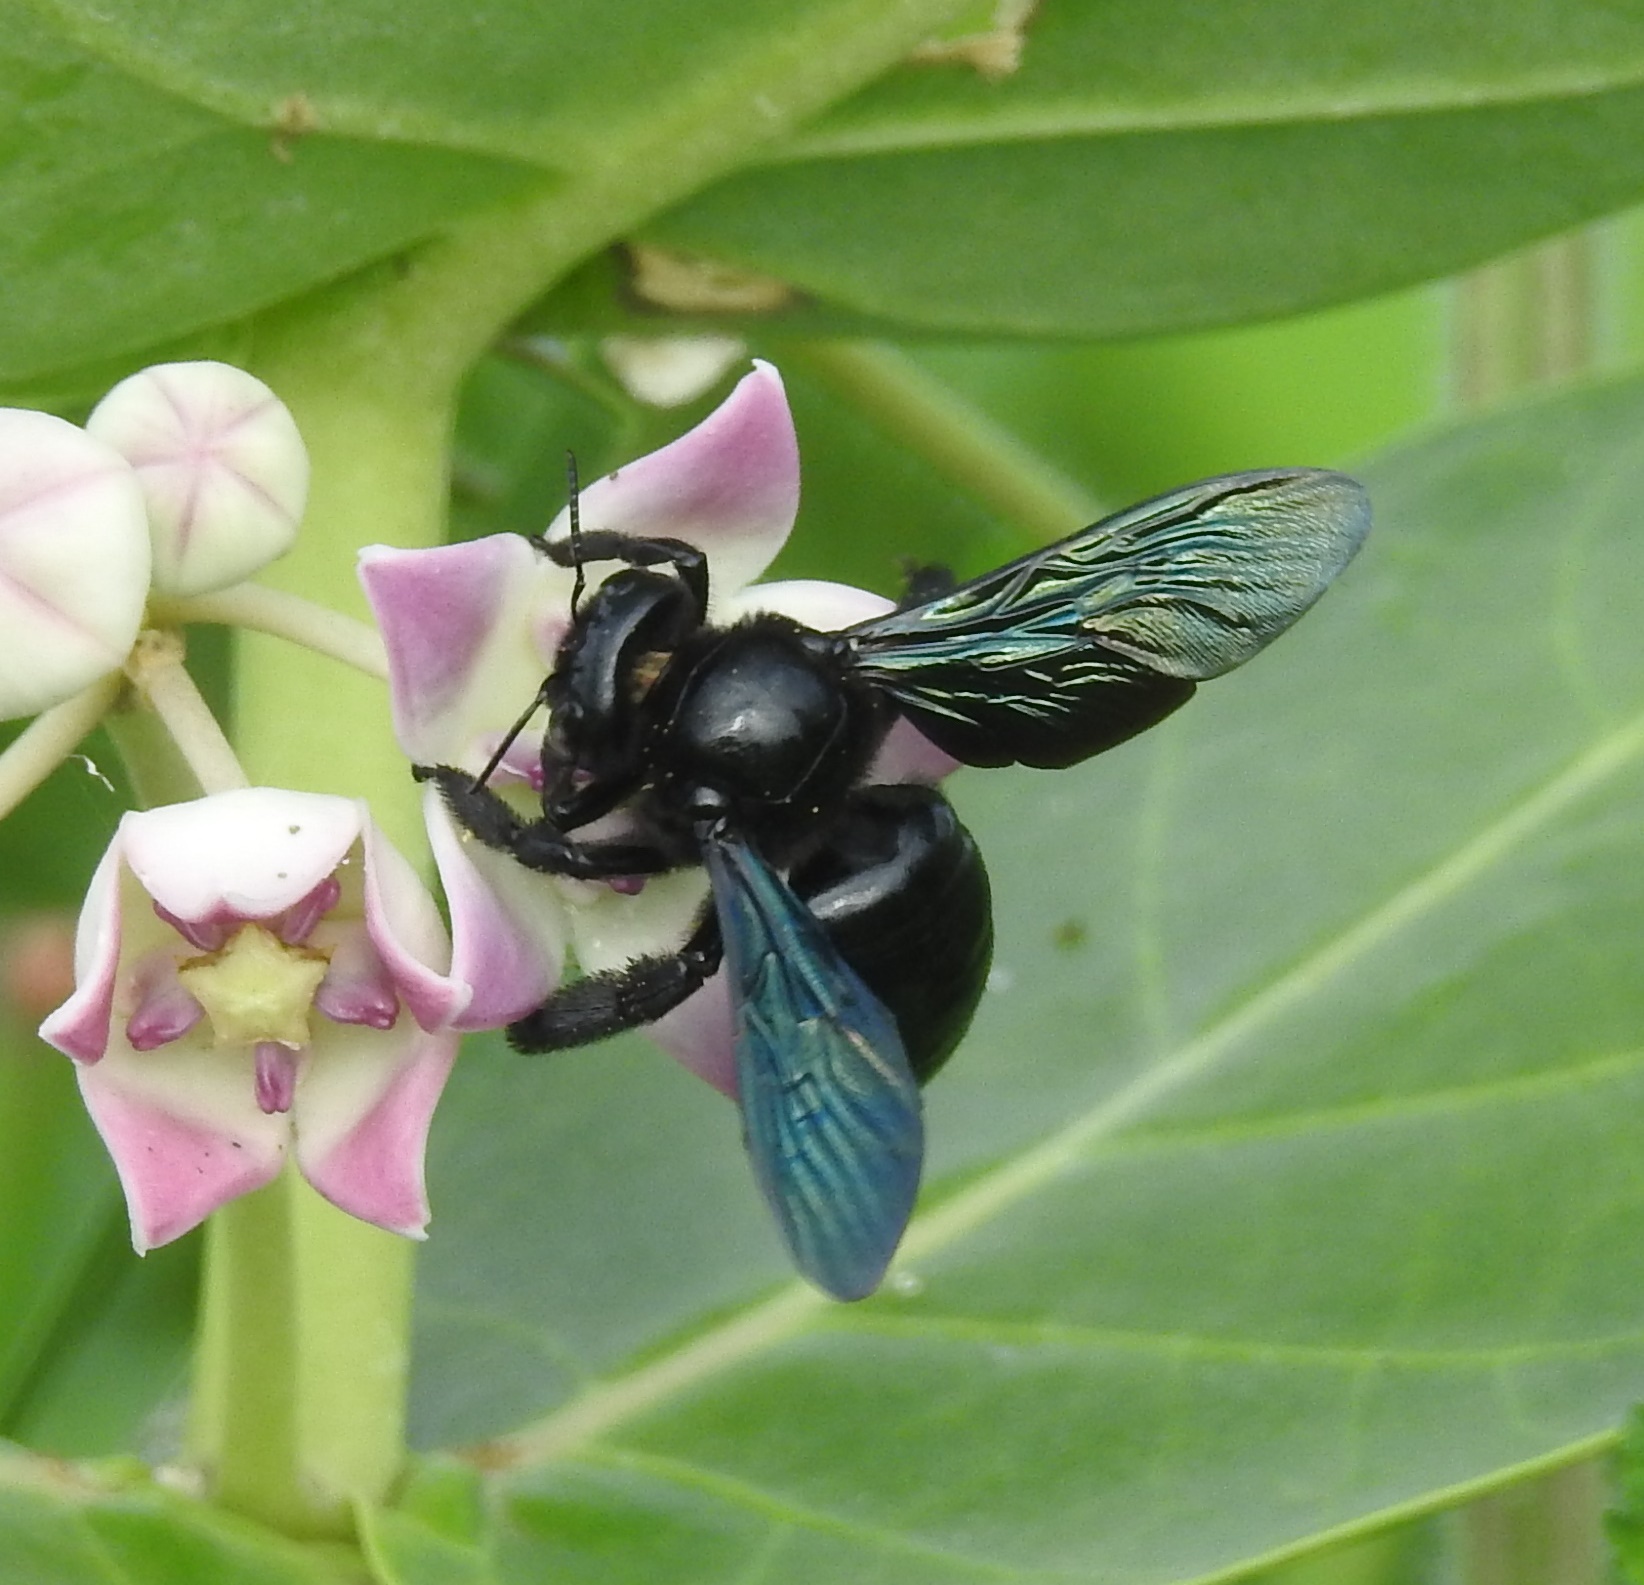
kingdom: Animalia
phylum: Arthropoda
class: Insecta
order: Hymenoptera
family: Apidae
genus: Xylocopa
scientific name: Xylocopa auripennis
